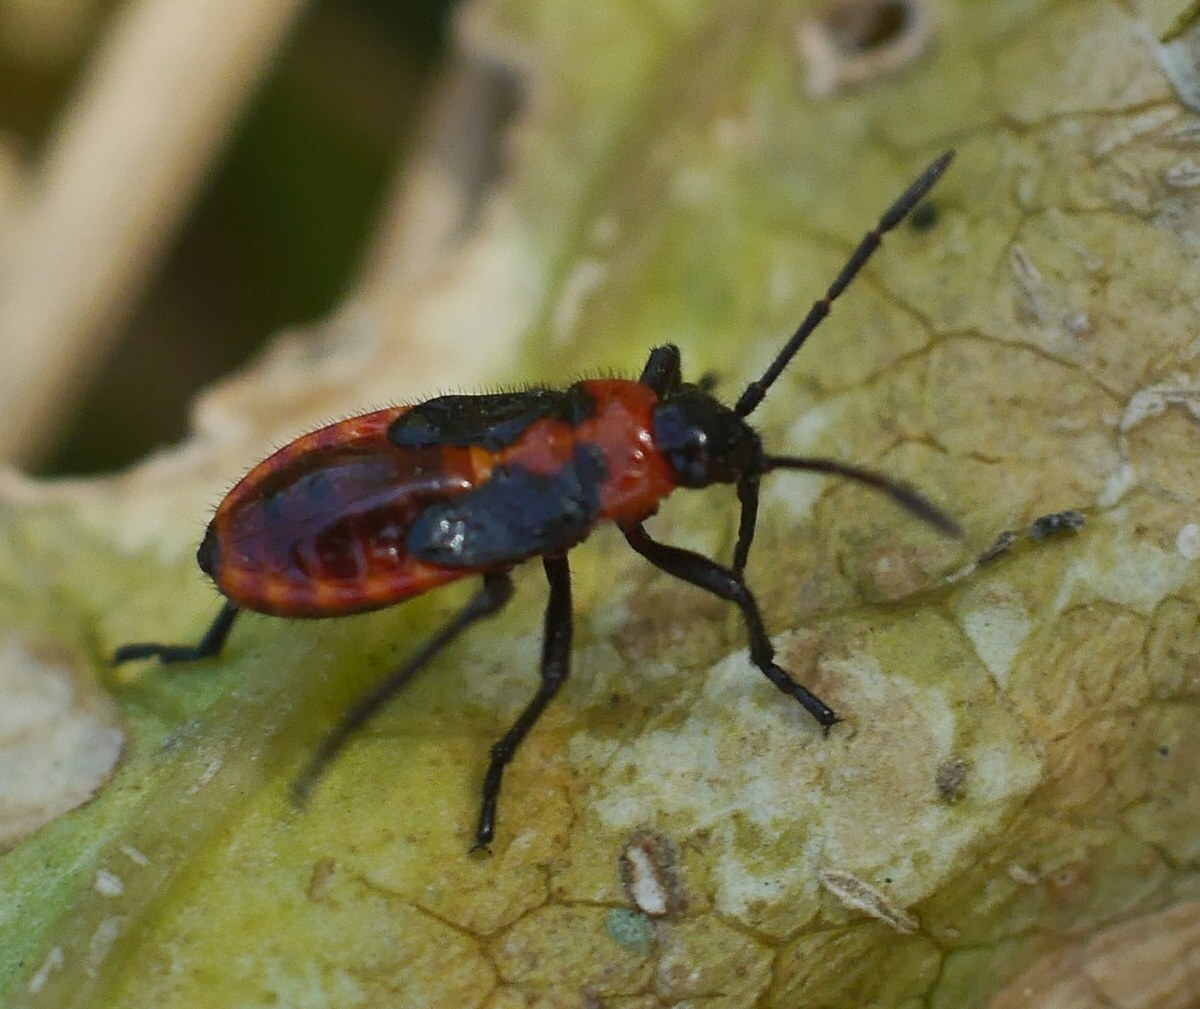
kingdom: Animalia
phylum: Arthropoda
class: Insecta
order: Hemiptera
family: Lygaeidae
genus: Tropidothorax
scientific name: Tropidothorax leucopterus
